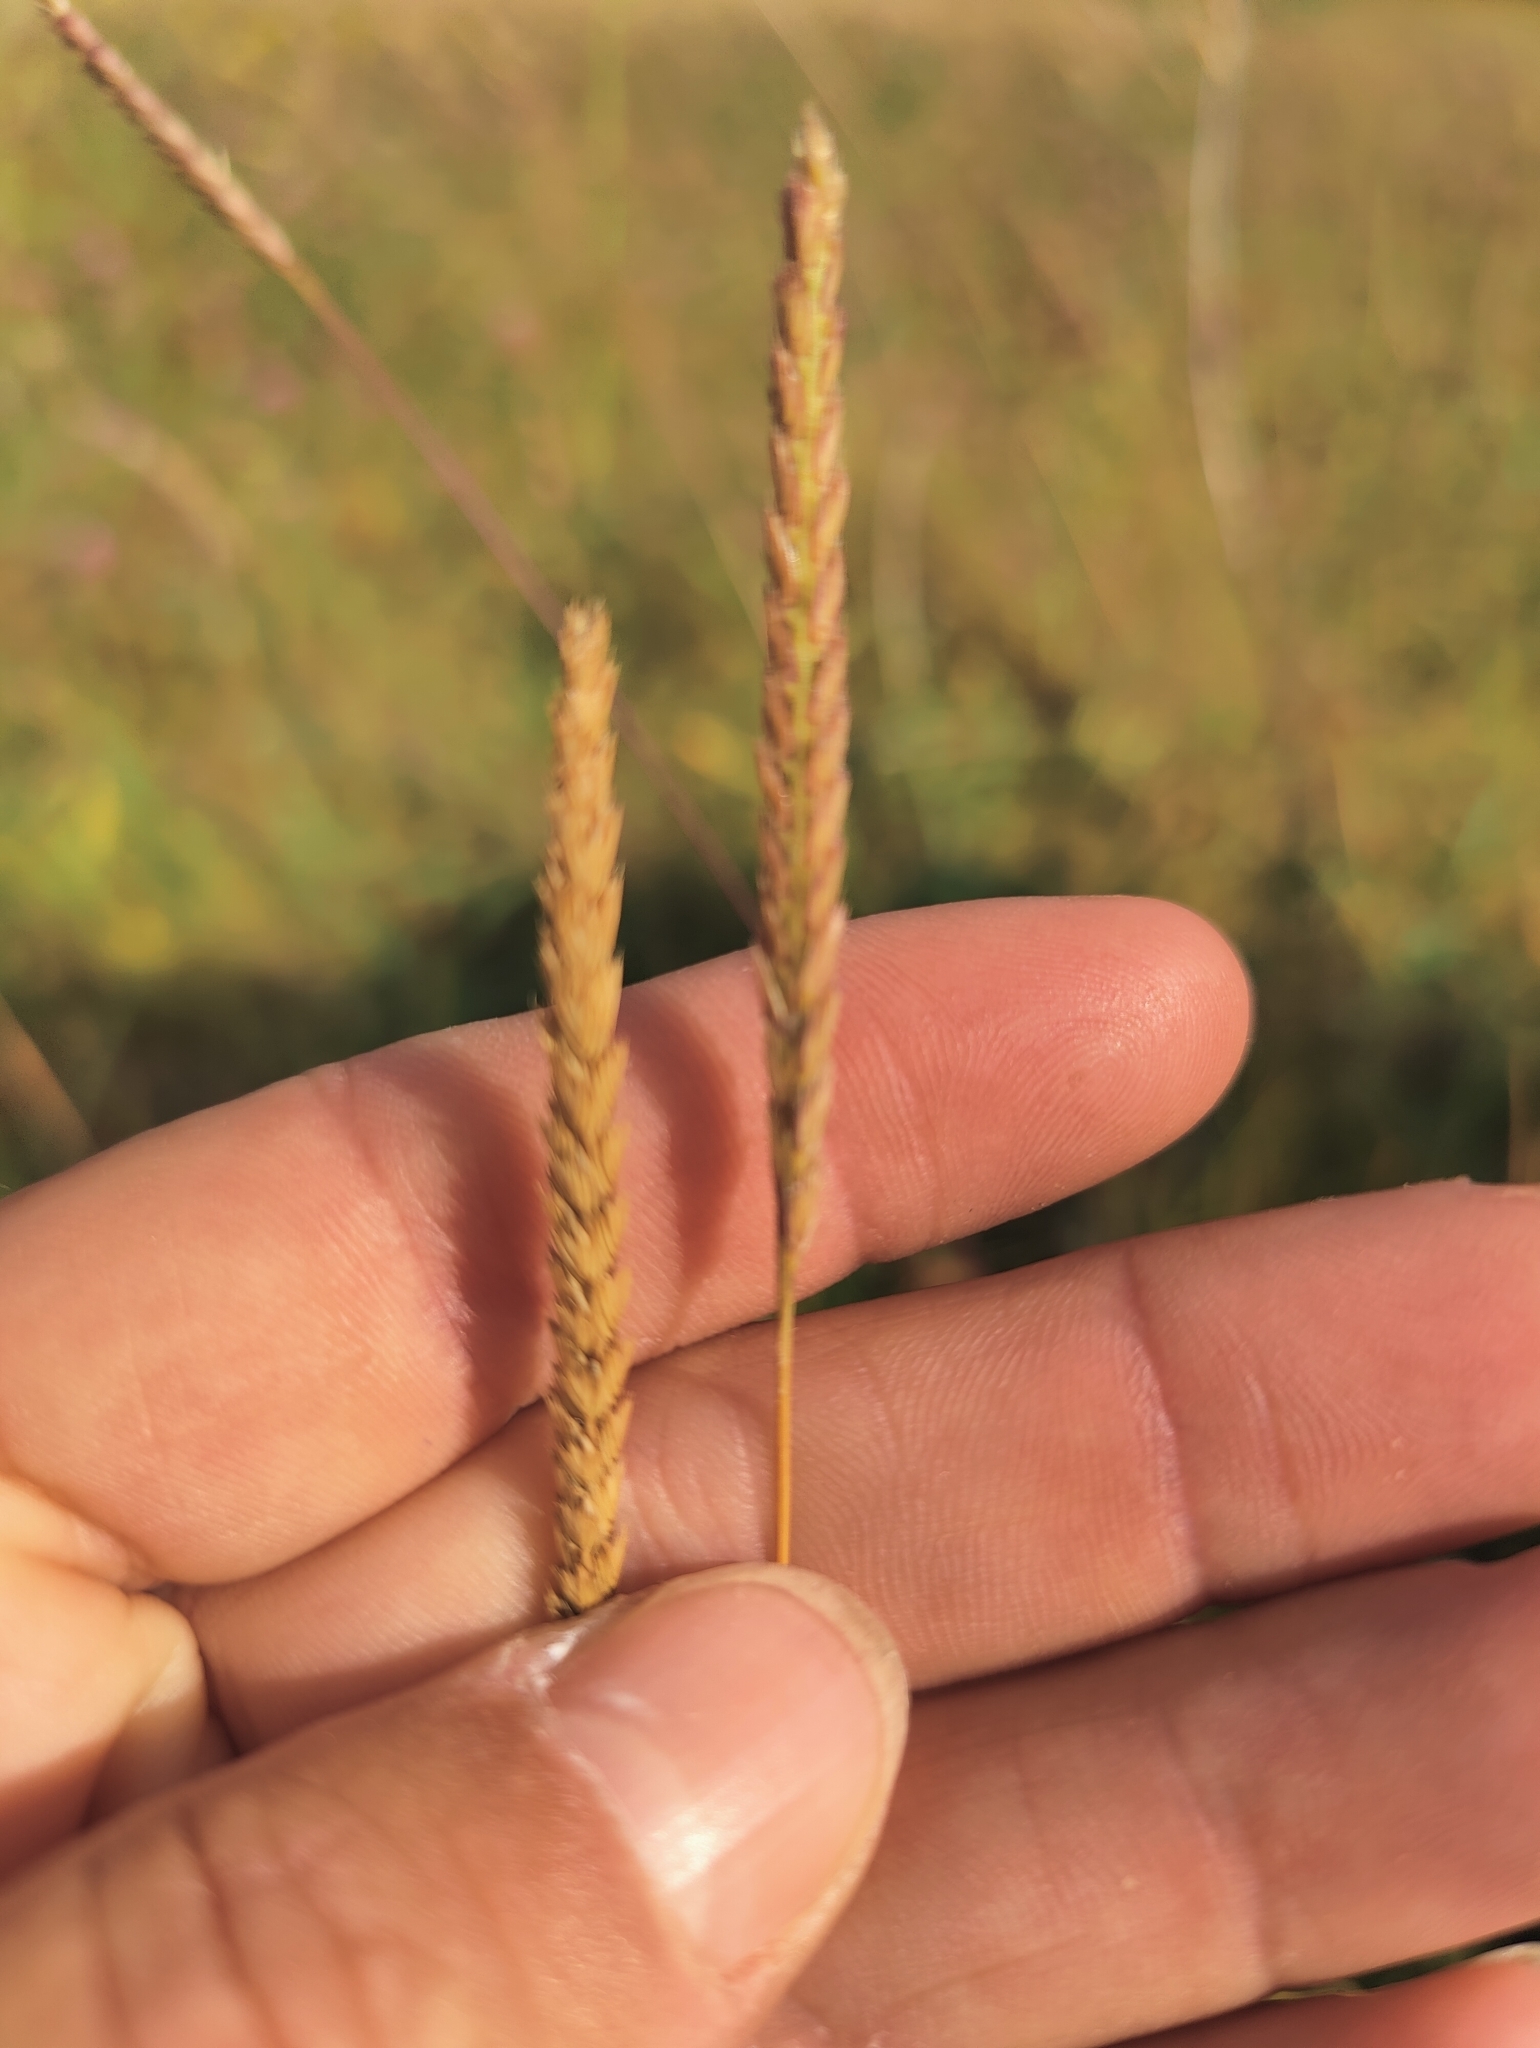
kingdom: Plantae
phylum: Tracheophyta
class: Liliopsida
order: Poales
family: Poaceae
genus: Cynosurus
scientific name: Cynosurus cristatus
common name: Crested dog's-tail
